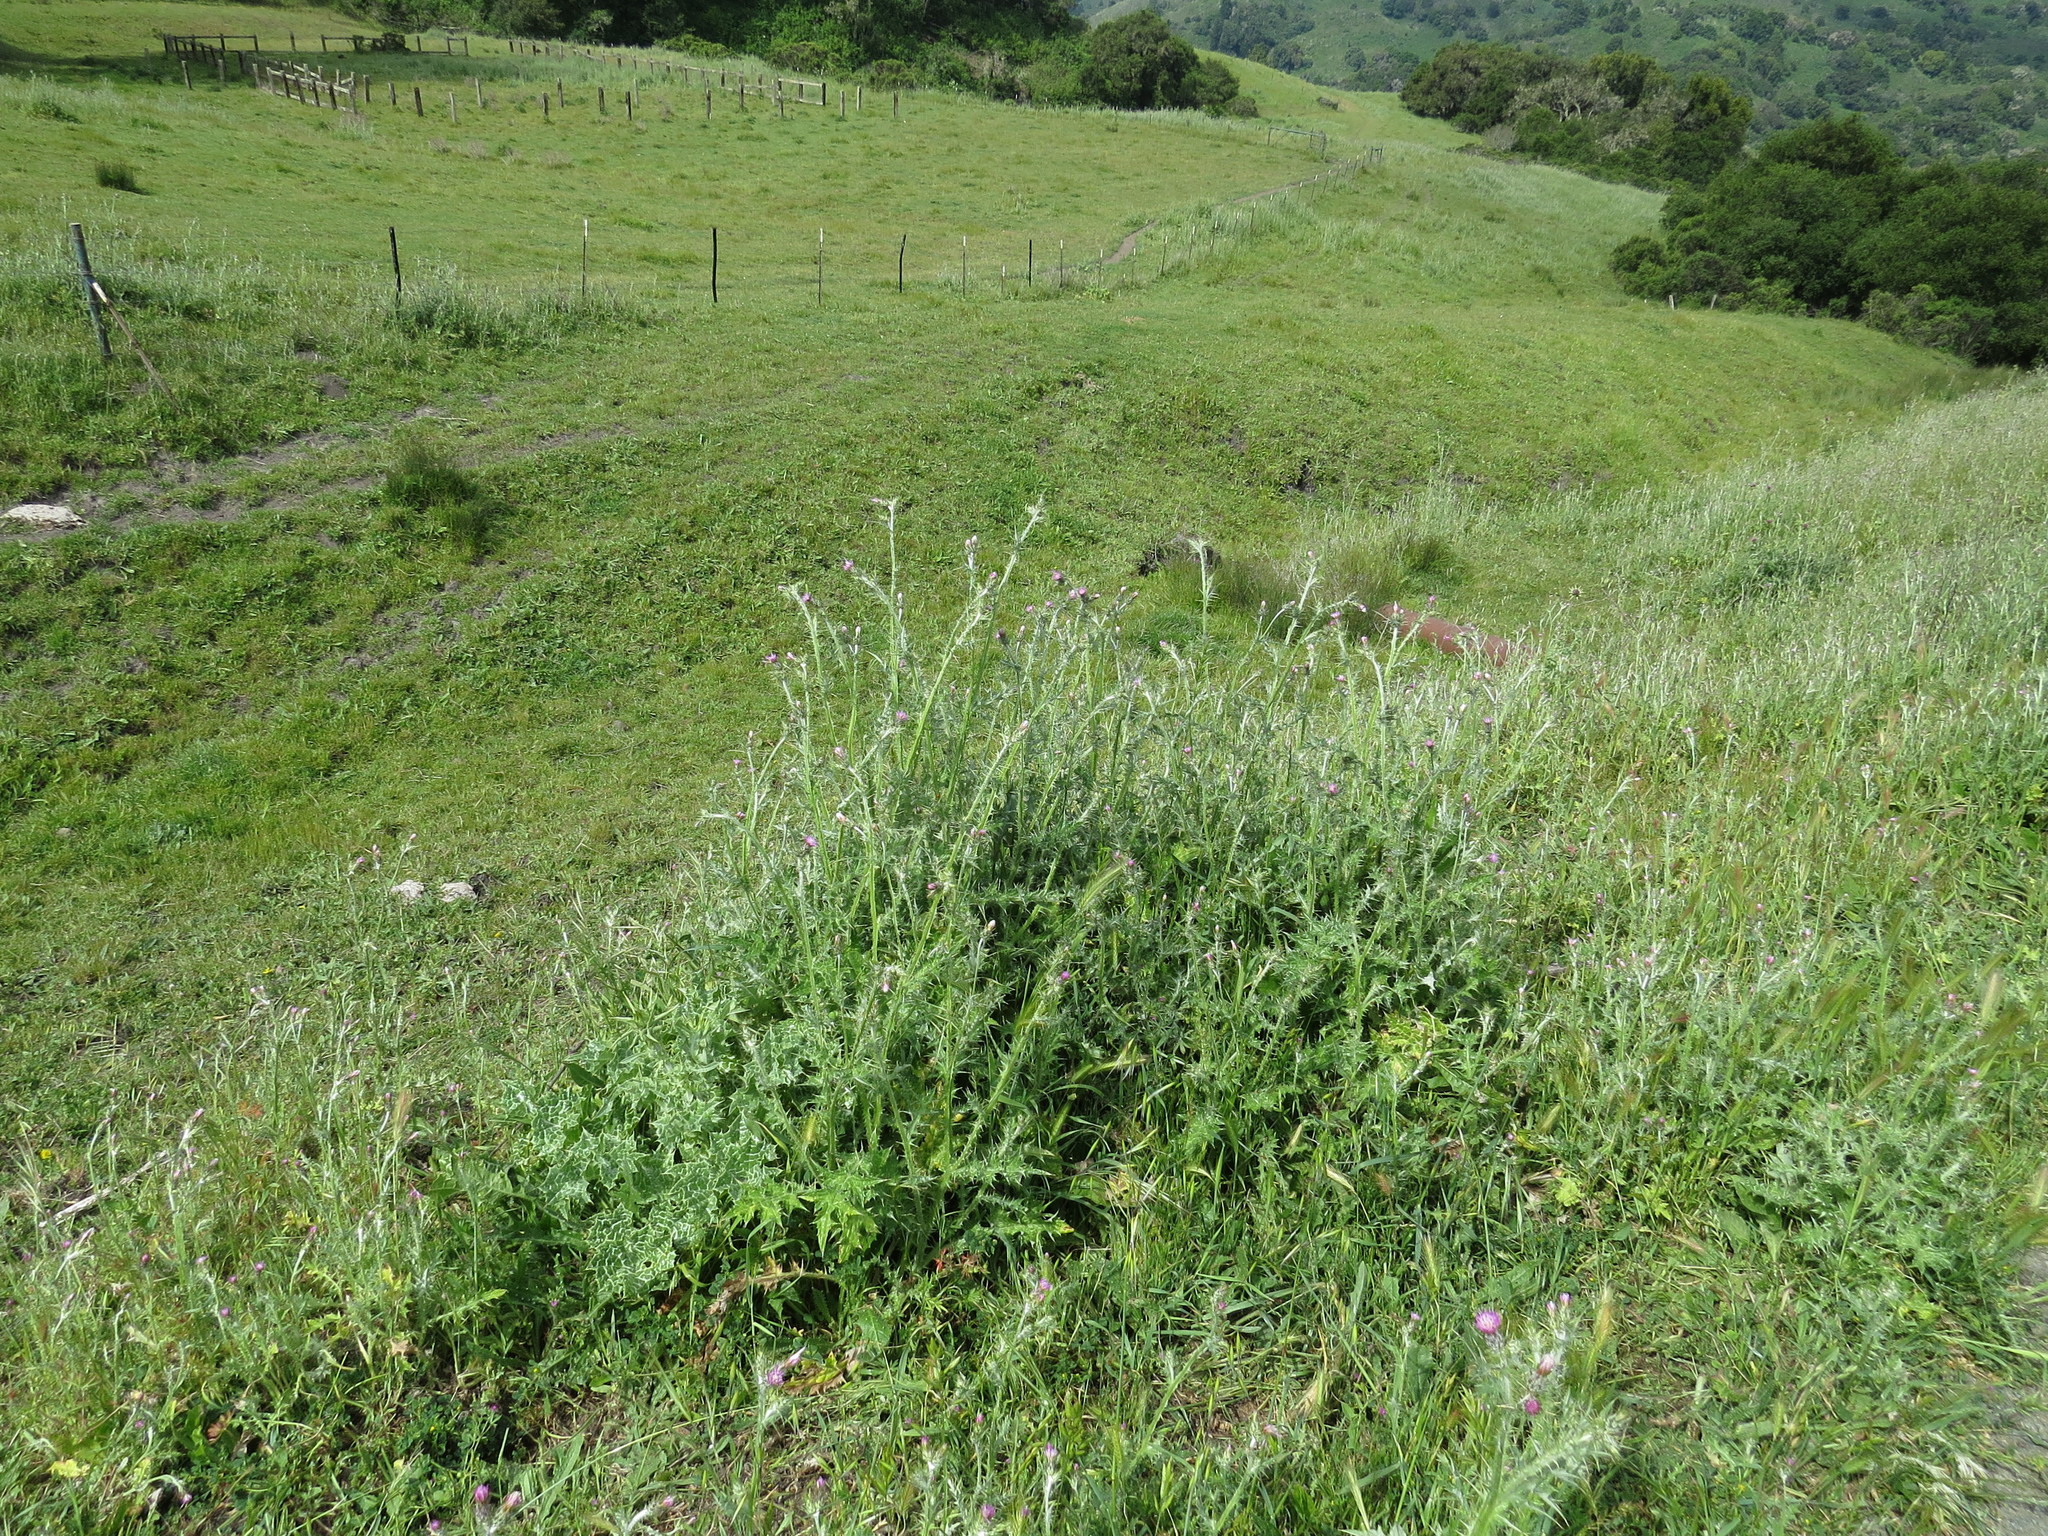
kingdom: Plantae
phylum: Tracheophyta
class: Magnoliopsida
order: Asterales
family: Asteraceae
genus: Carduus
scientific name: Carduus pycnocephalus
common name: Plymouth thistle
